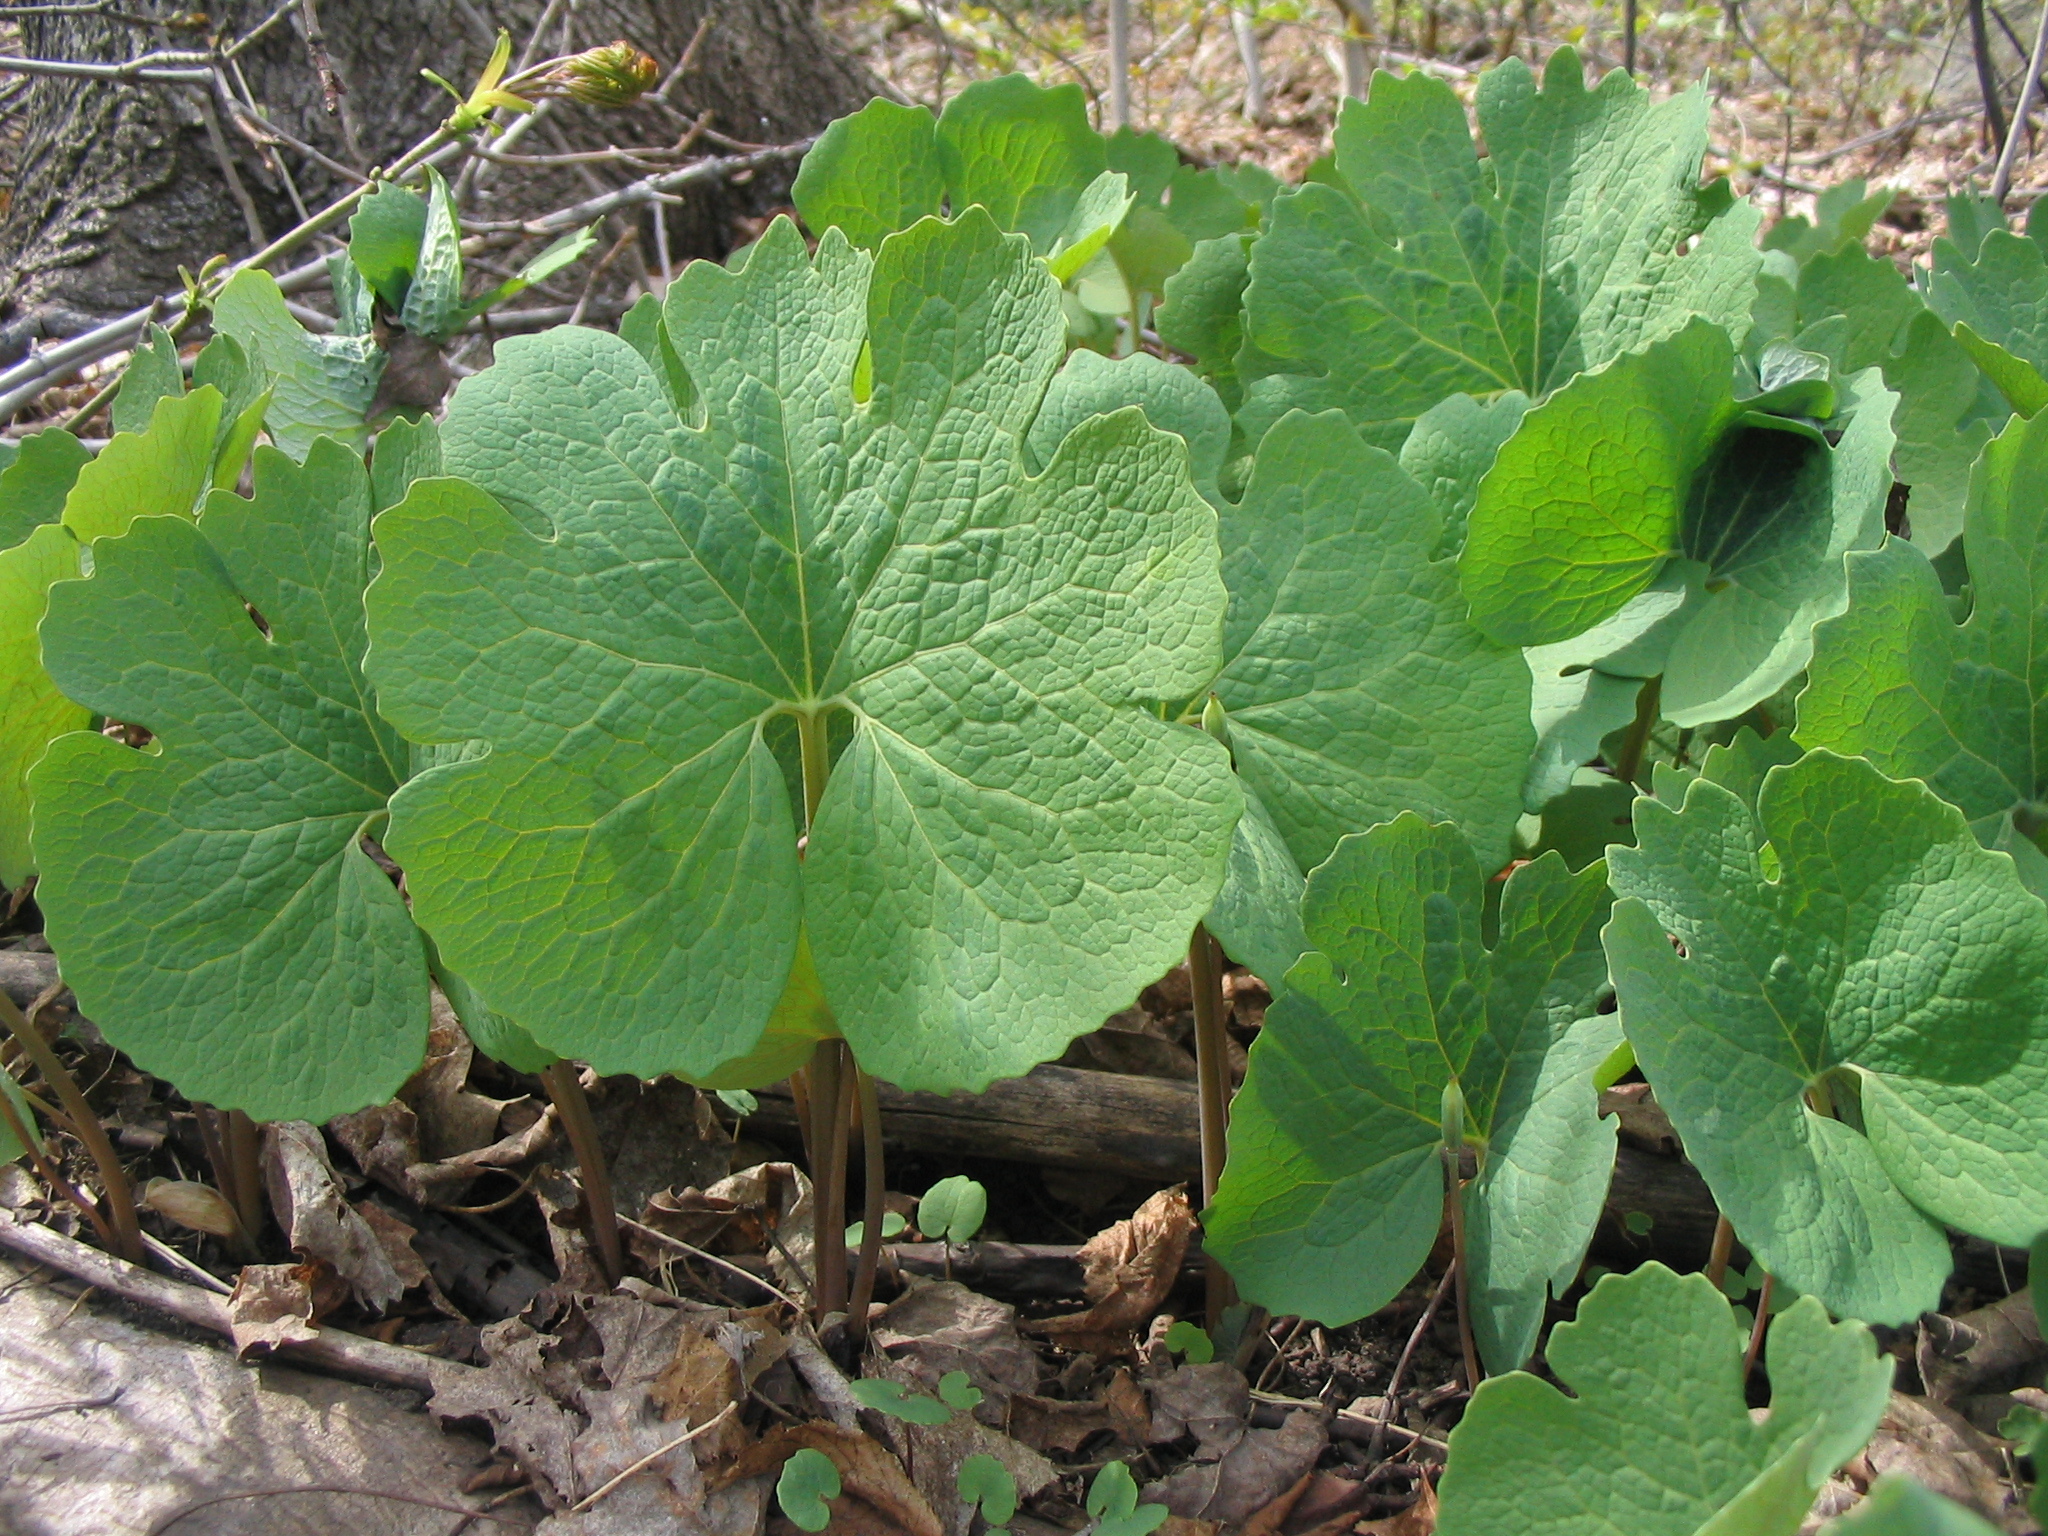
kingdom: Plantae
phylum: Tracheophyta
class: Magnoliopsida
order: Ranunculales
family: Papaveraceae
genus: Sanguinaria
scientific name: Sanguinaria canadensis
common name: Bloodroot
